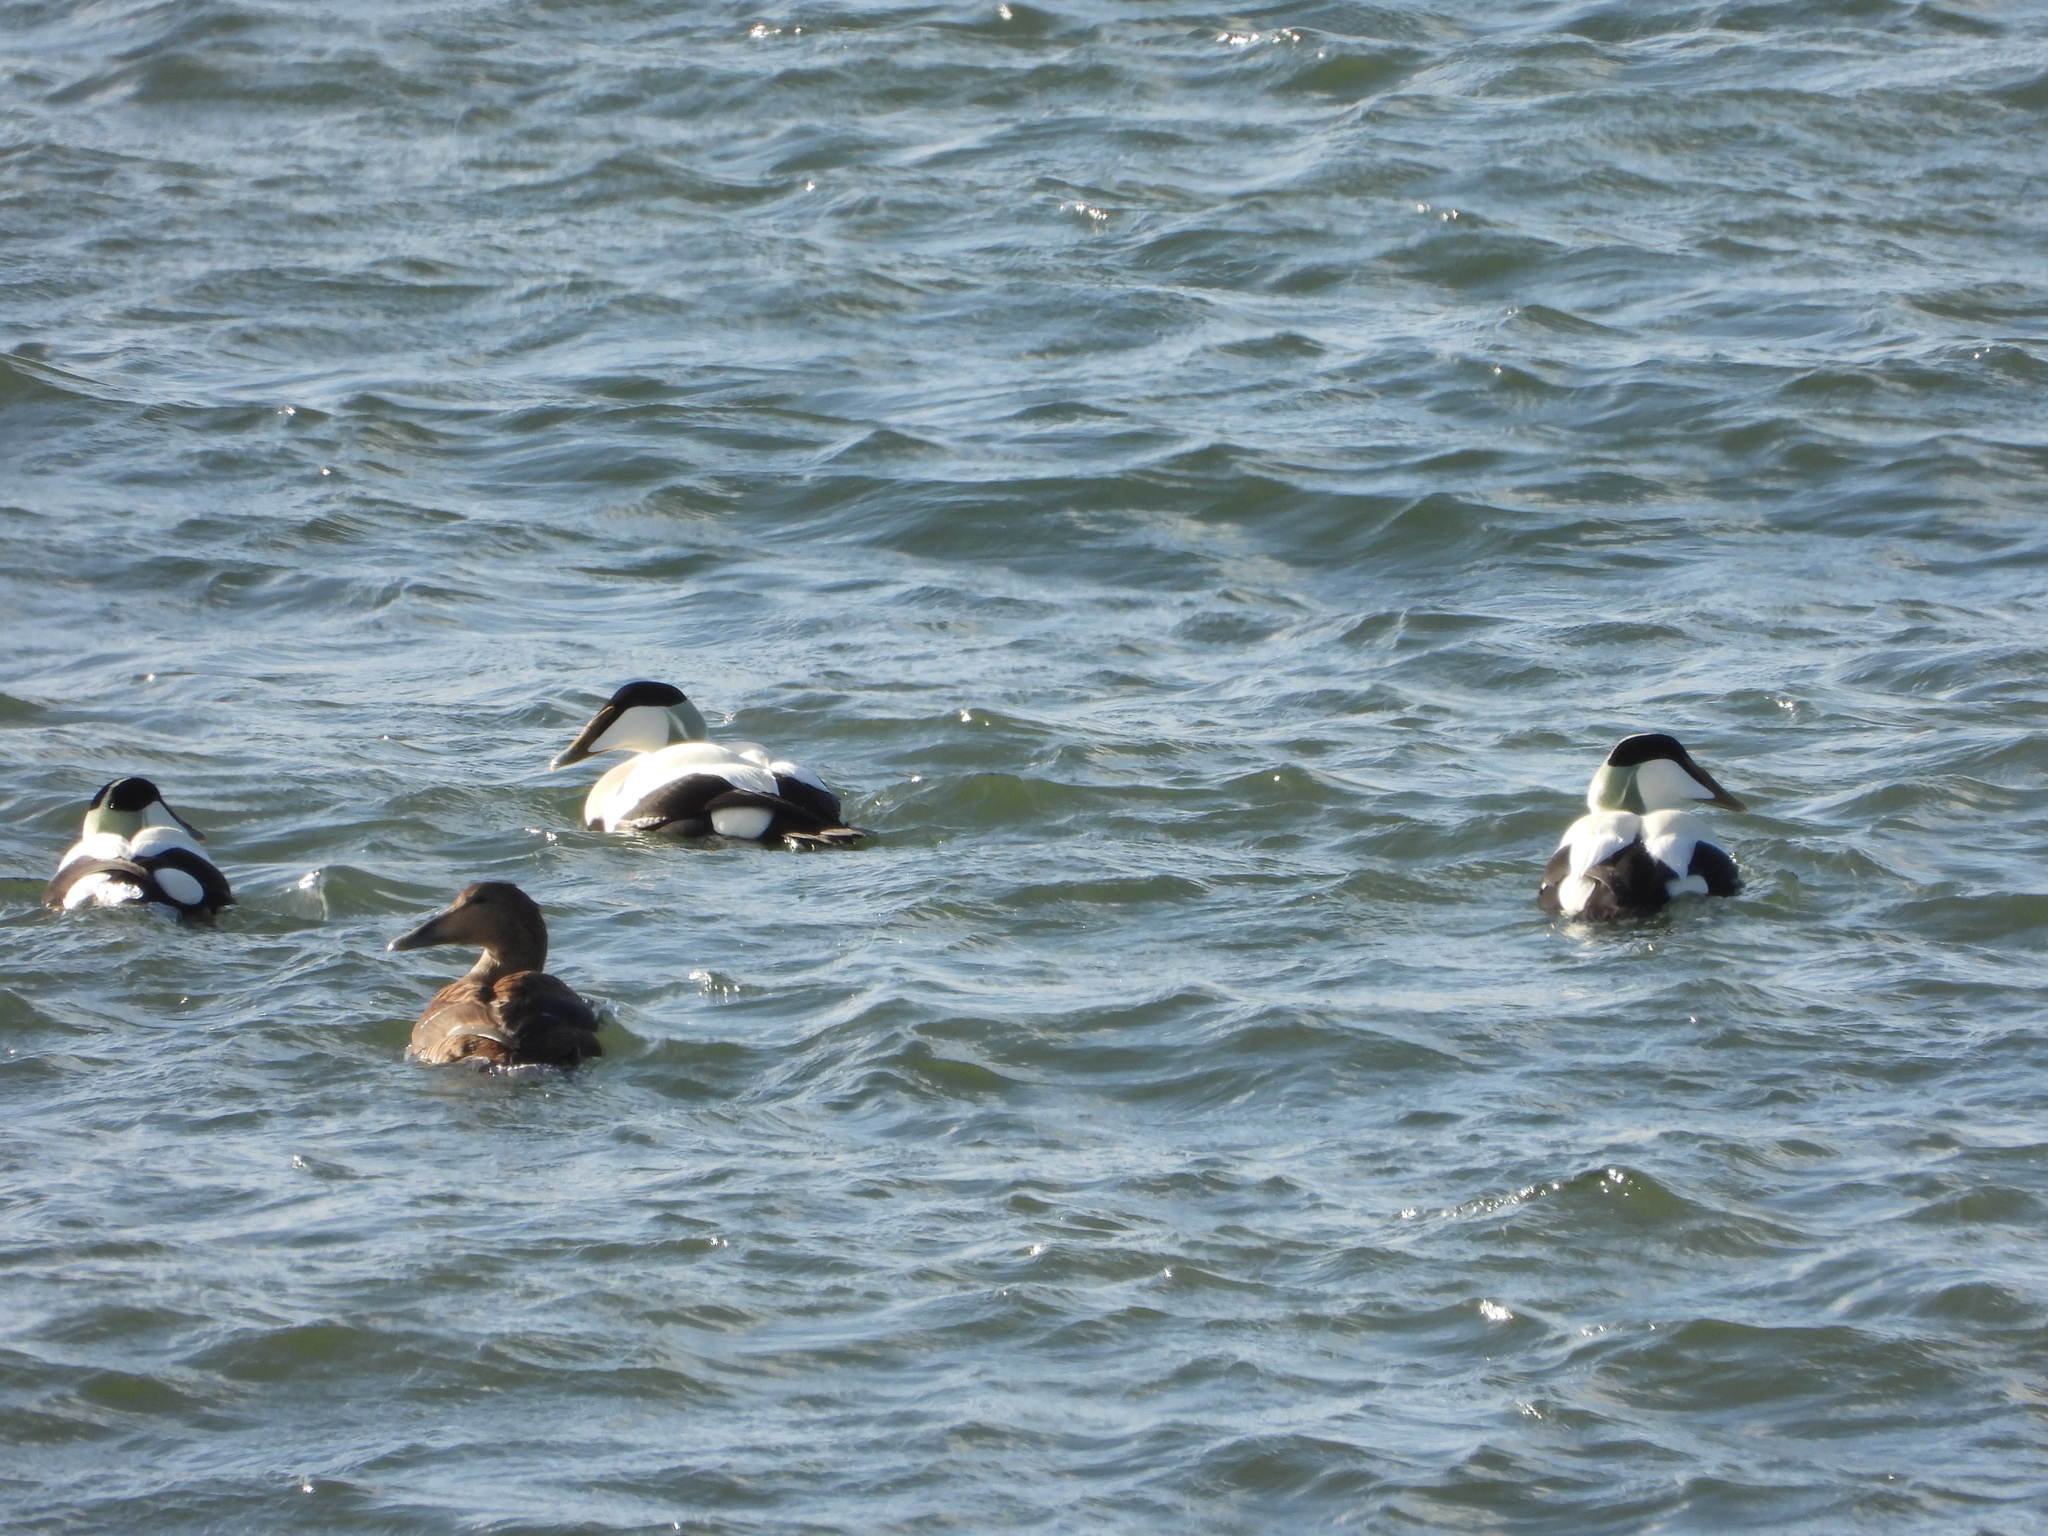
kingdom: Animalia
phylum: Chordata
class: Aves
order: Anseriformes
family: Anatidae
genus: Somateria
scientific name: Somateria mollissima
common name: Common eider
